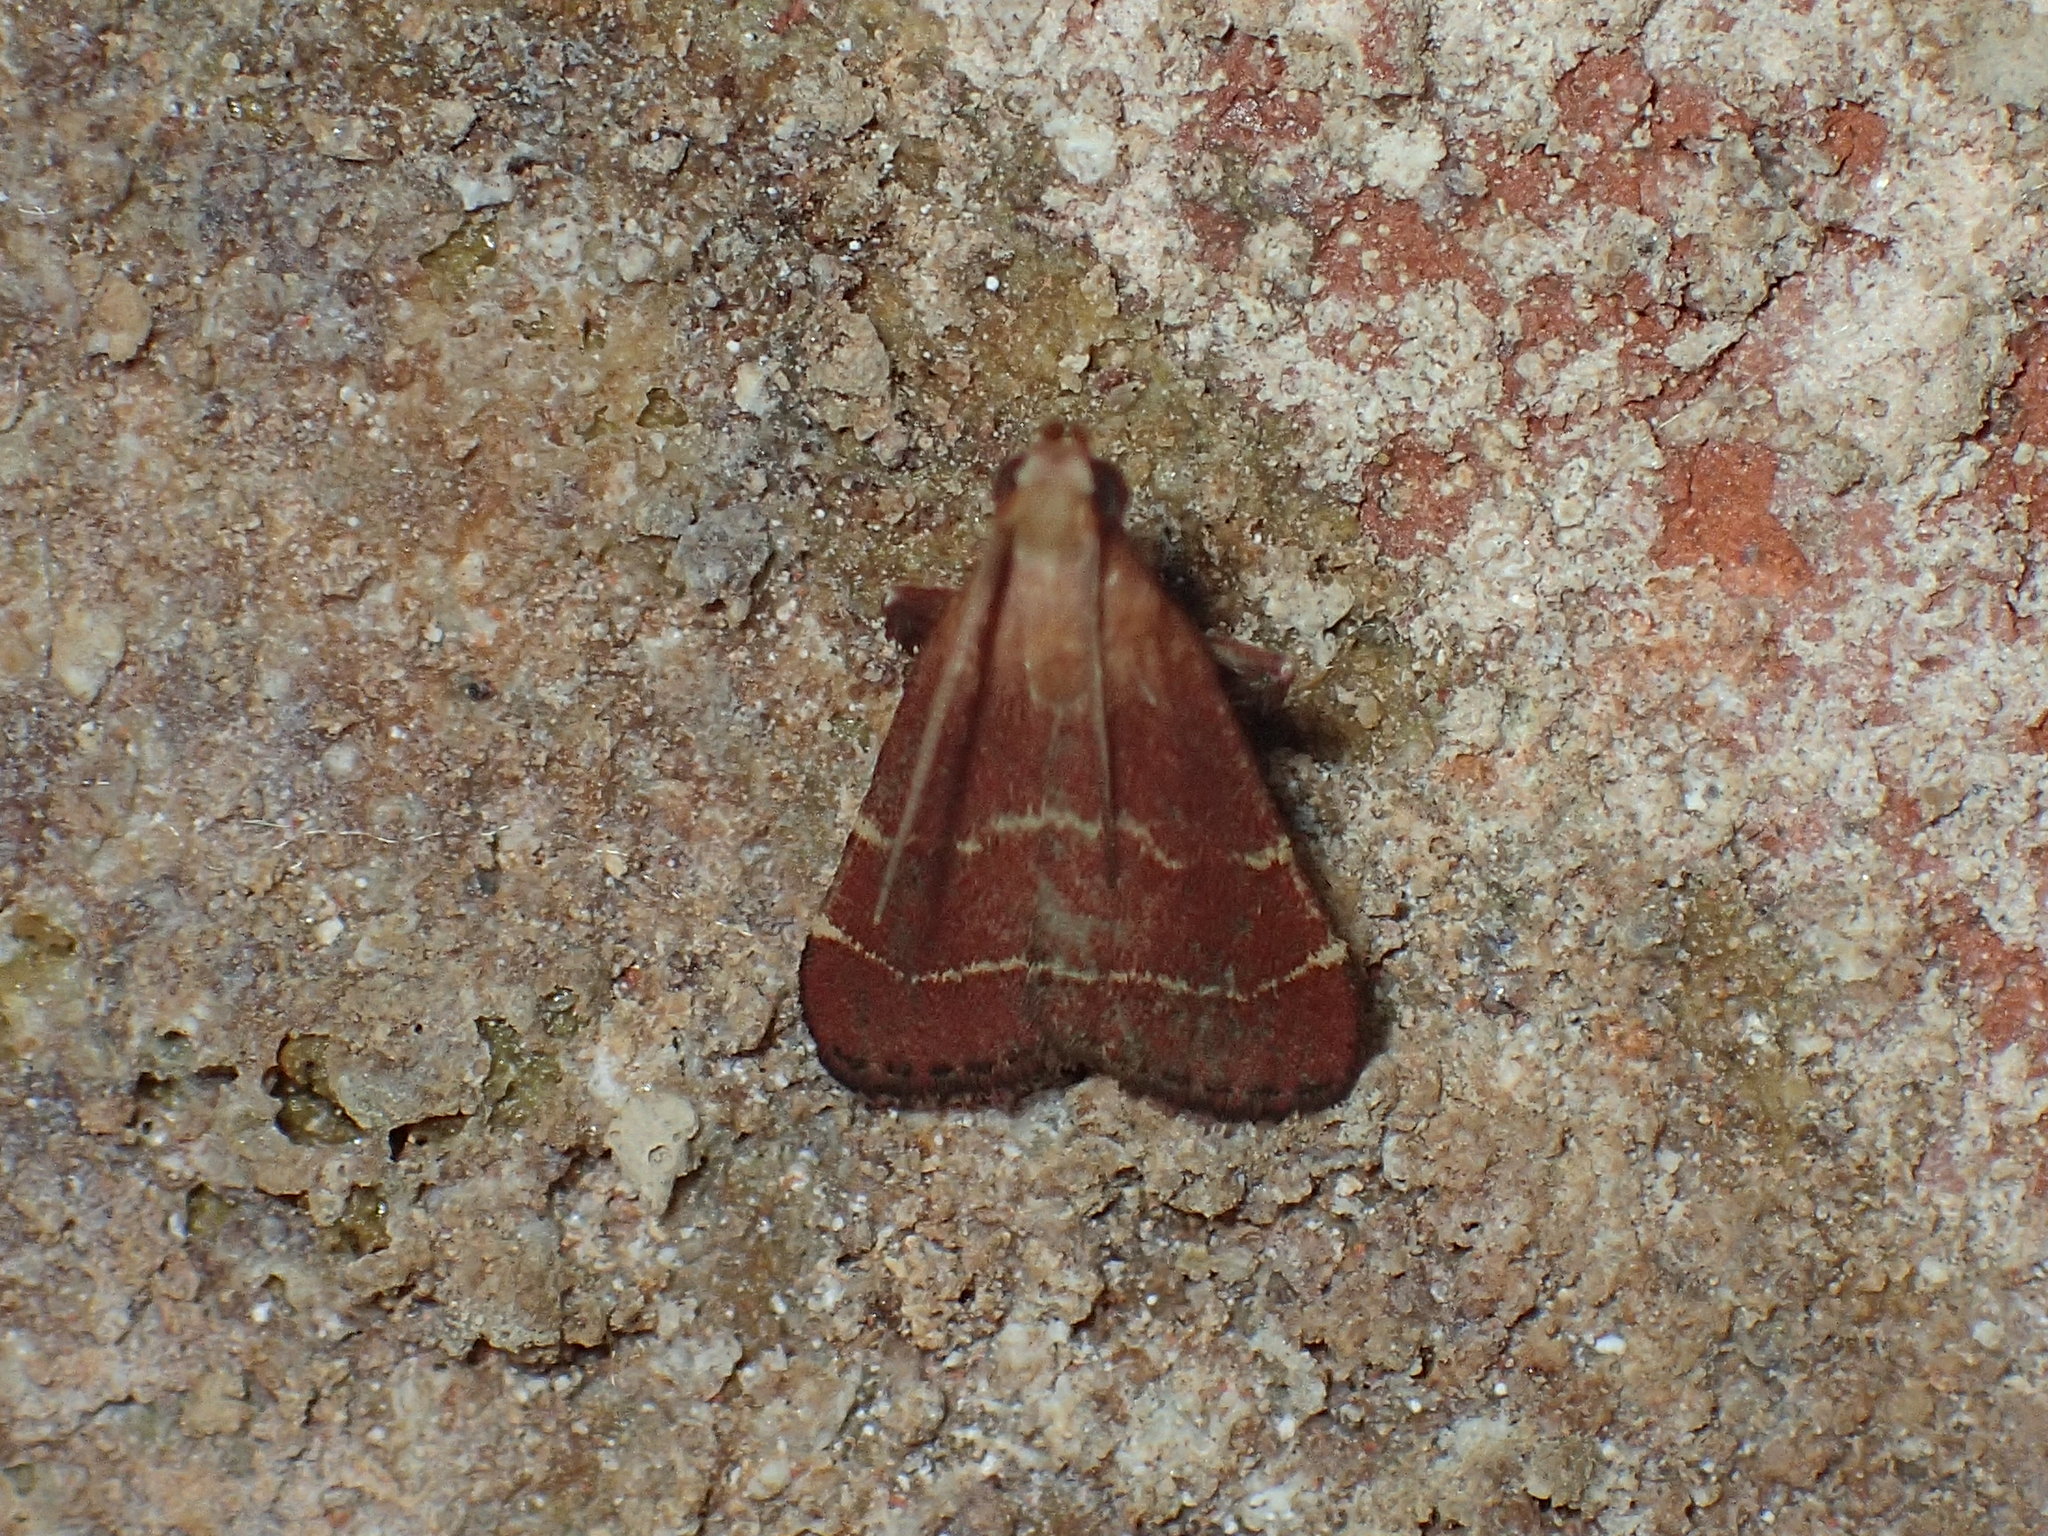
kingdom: Animalia
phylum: Arthropoda
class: Insecta
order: Lepidoptera
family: Pyralidae
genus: Arta
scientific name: Arta statalis
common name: Posturing arta moth
